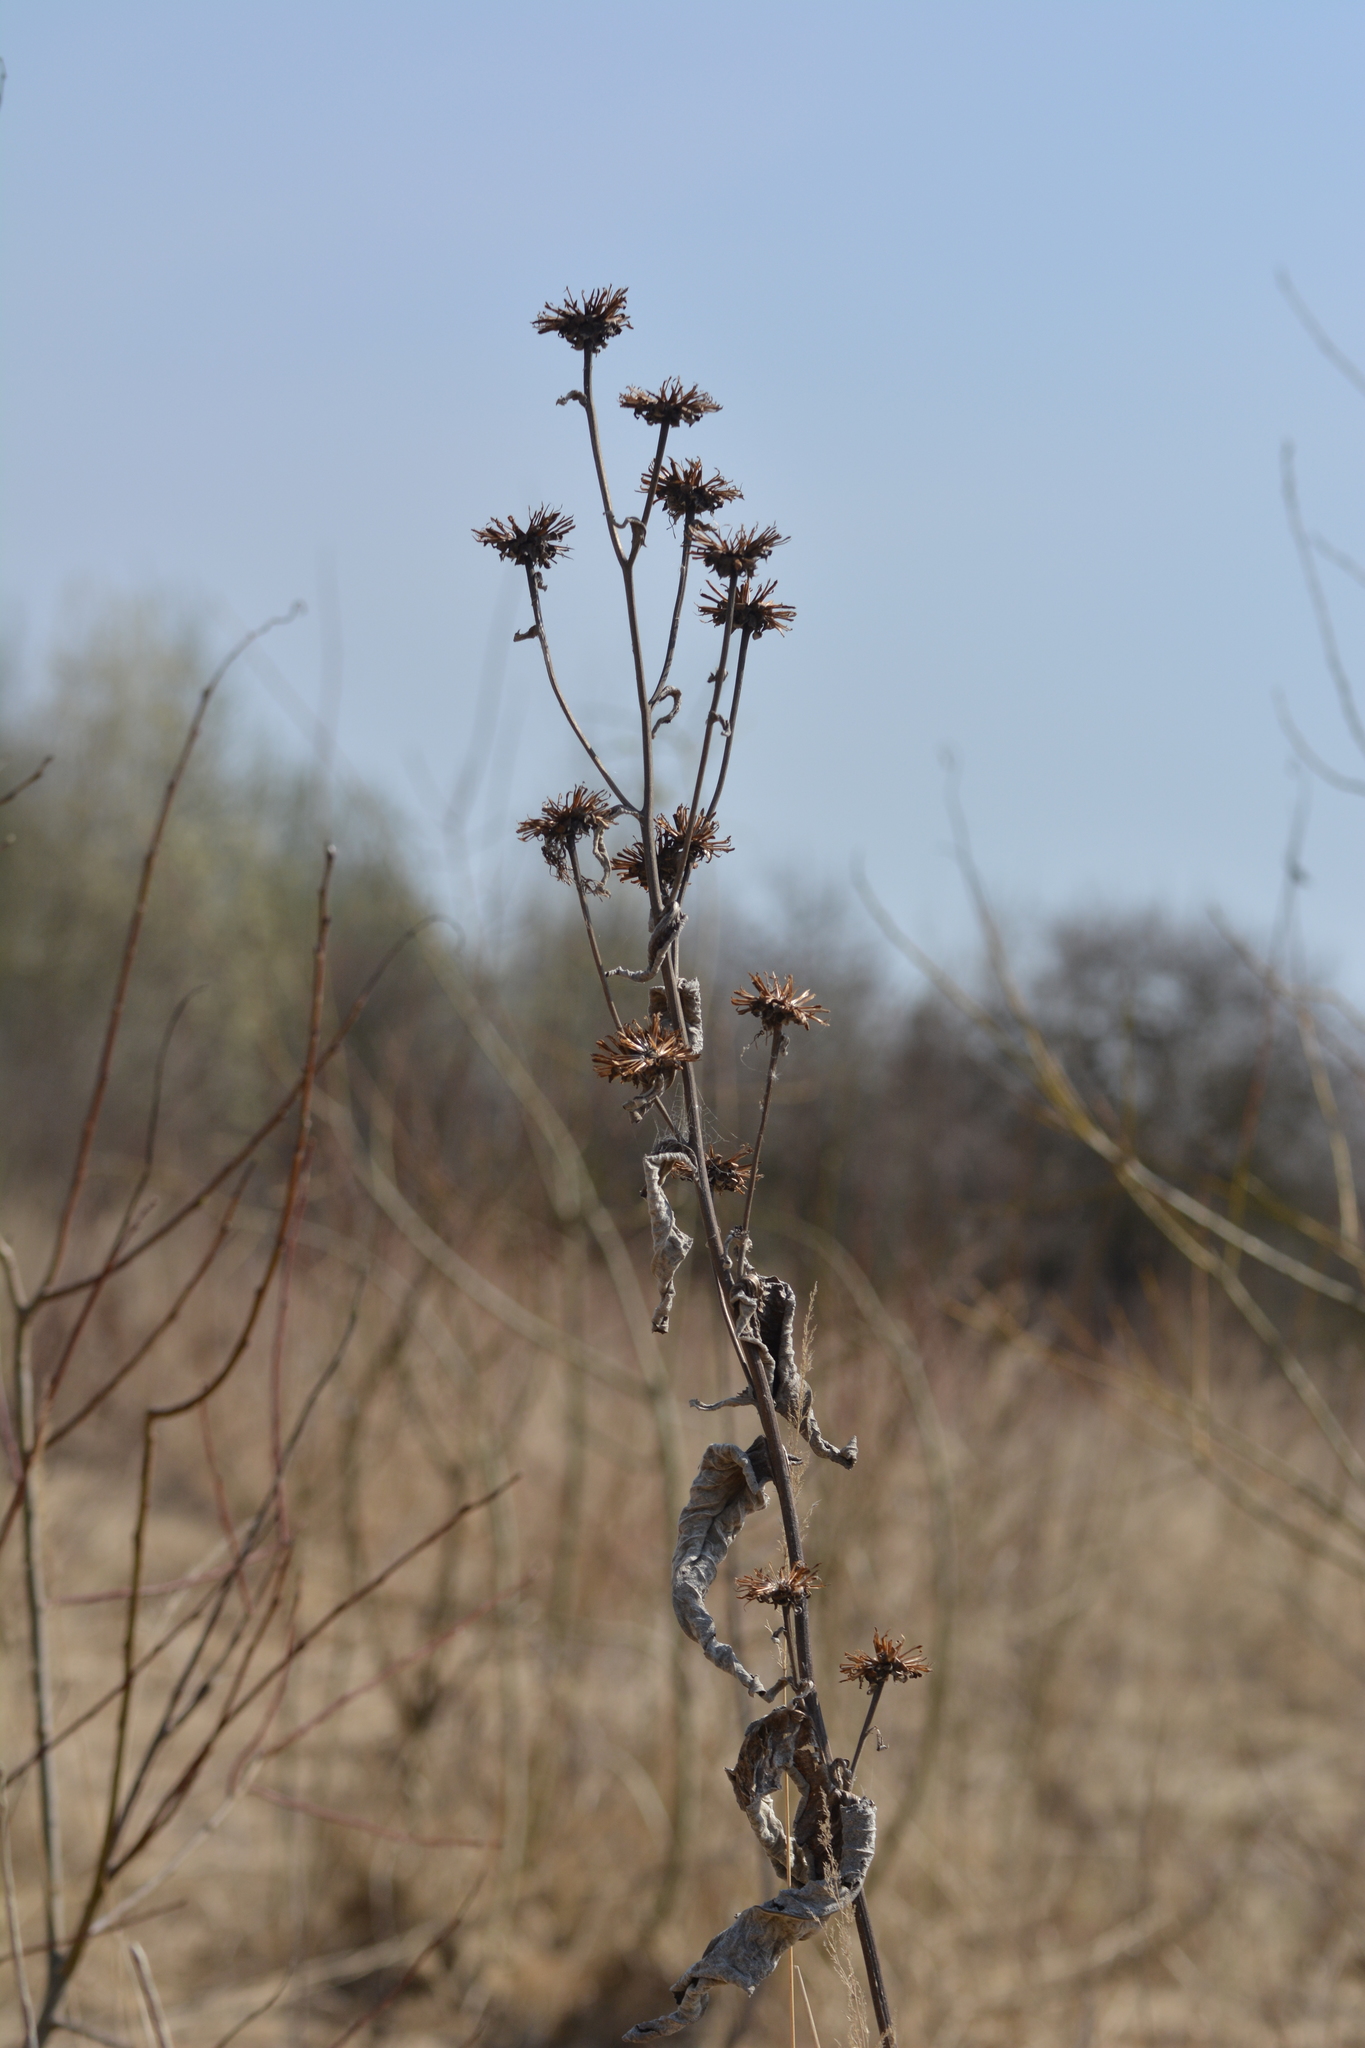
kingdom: Plantae
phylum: Tracheophyta
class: Magnoliopsida
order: Asterales
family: Asteraceae
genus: Inula
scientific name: Inula helenium
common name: Elecampane
